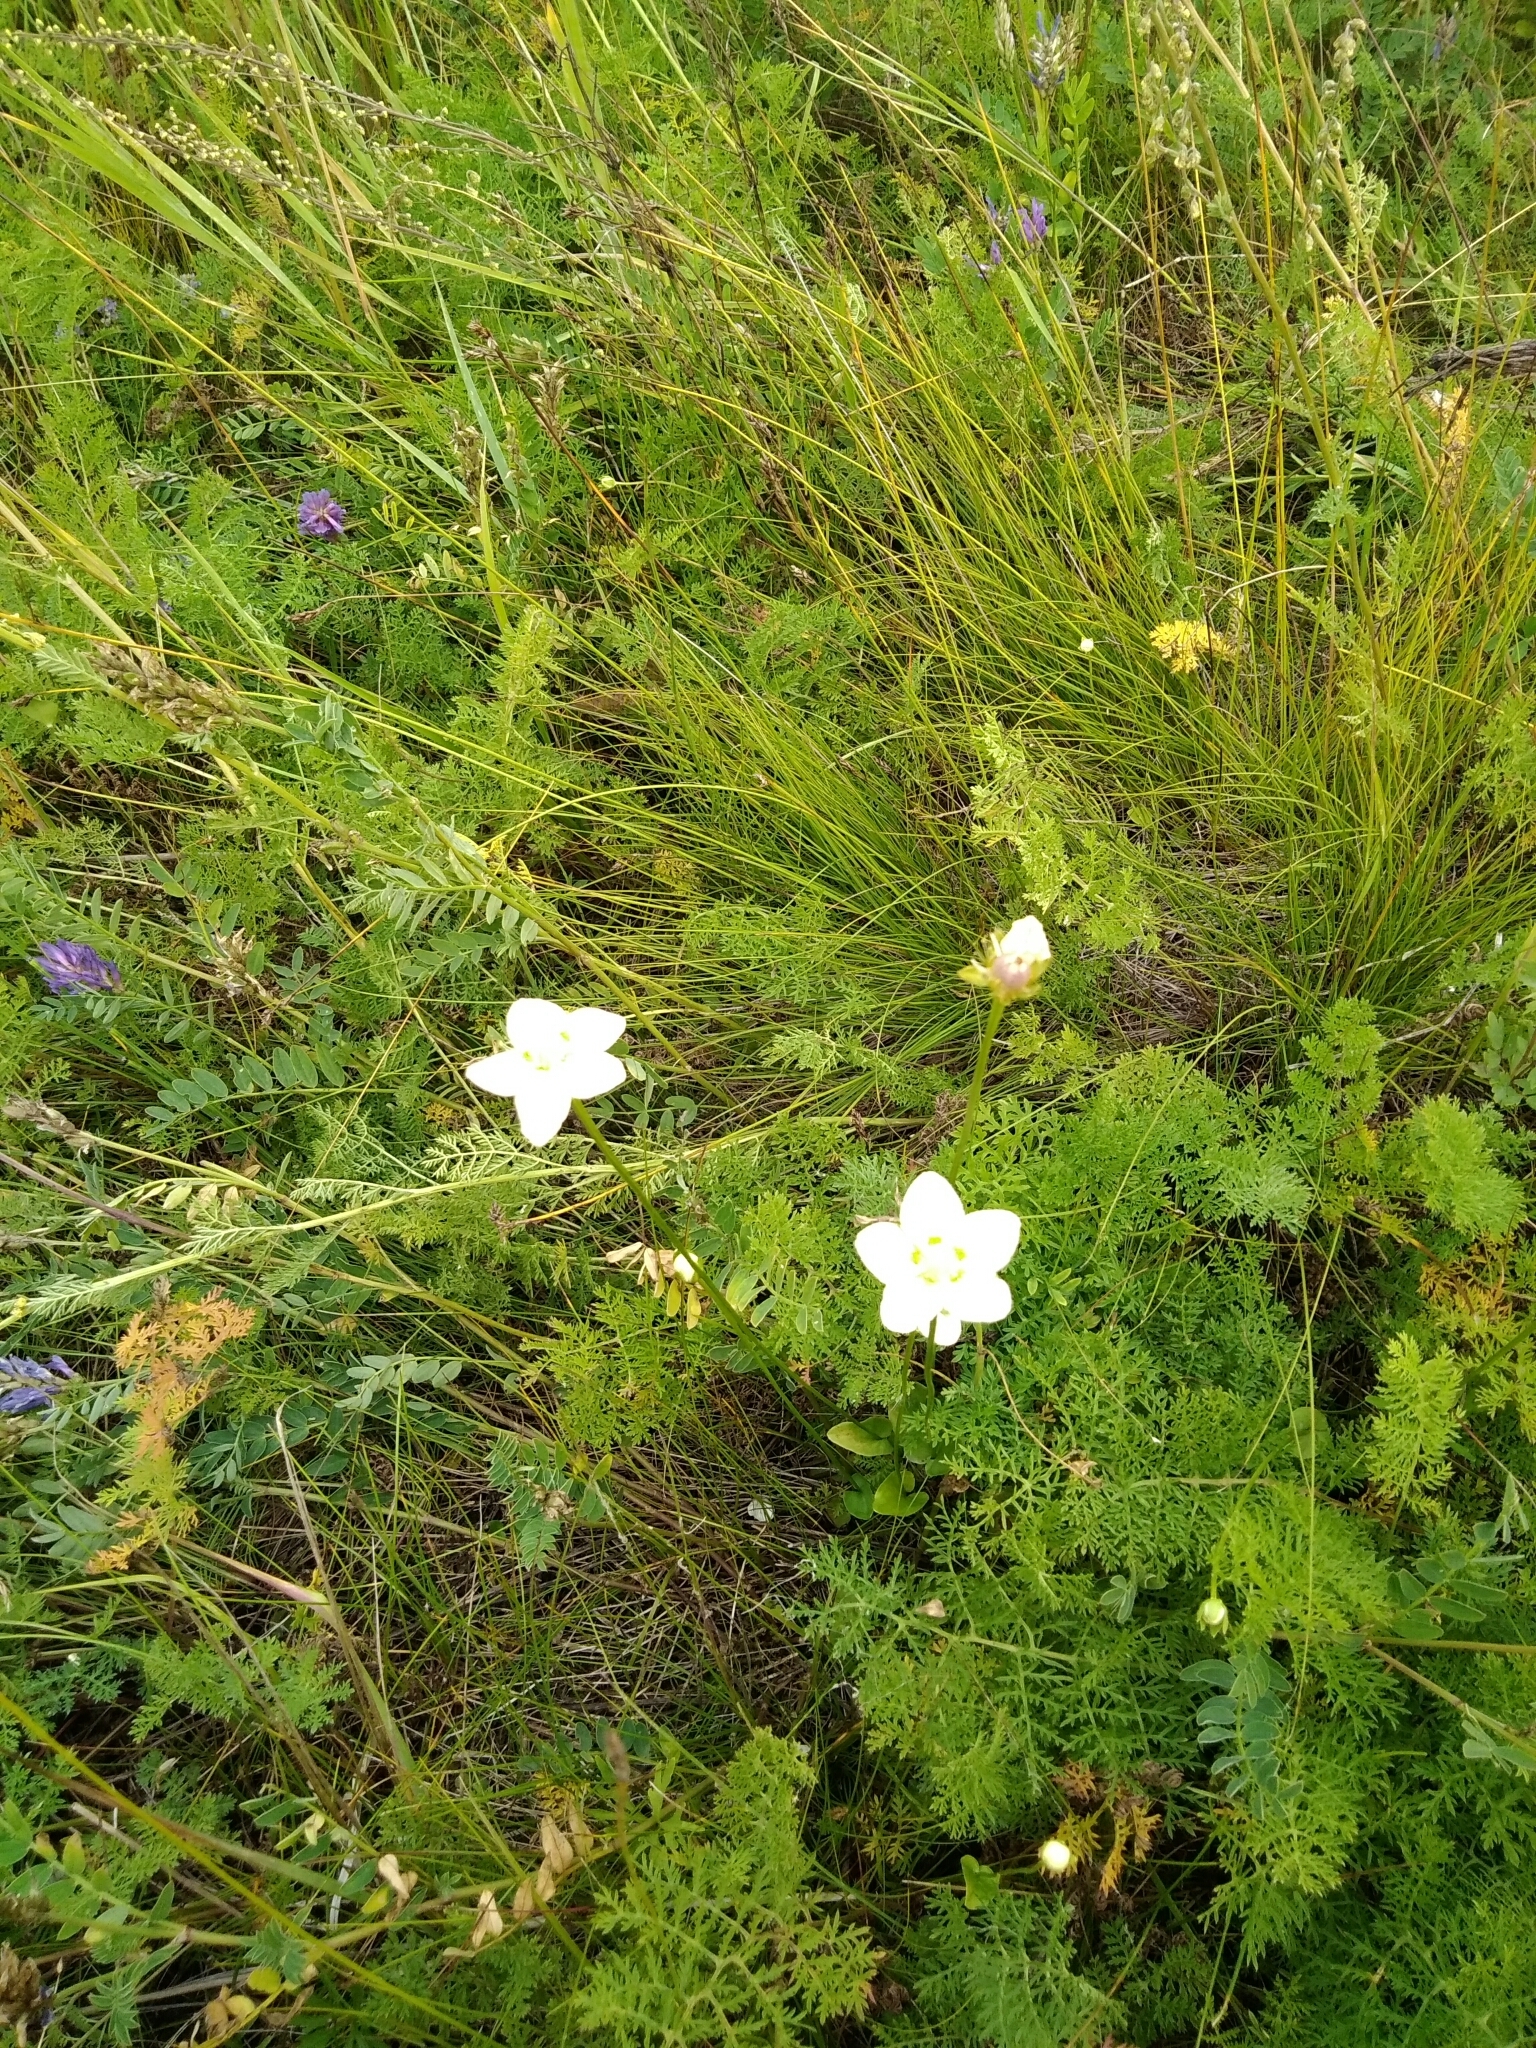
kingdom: Plantae
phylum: Tracheophyta
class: Magnoliopsida
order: Celastrales
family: Parnassiaceae
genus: Parnassia
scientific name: Parnassia palustris
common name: Grass-of-parnassus
